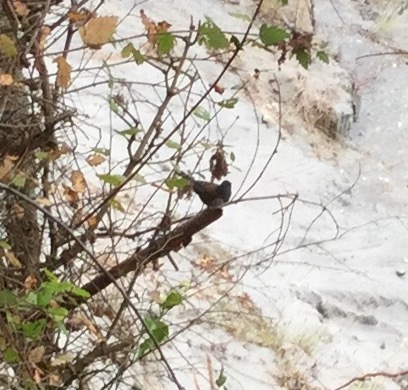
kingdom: Animalia
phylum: Chordata
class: Aves
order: Passeriformes
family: Passerellidae
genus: Junco
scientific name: Junco hyemalis
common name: Dark-eyed junco
